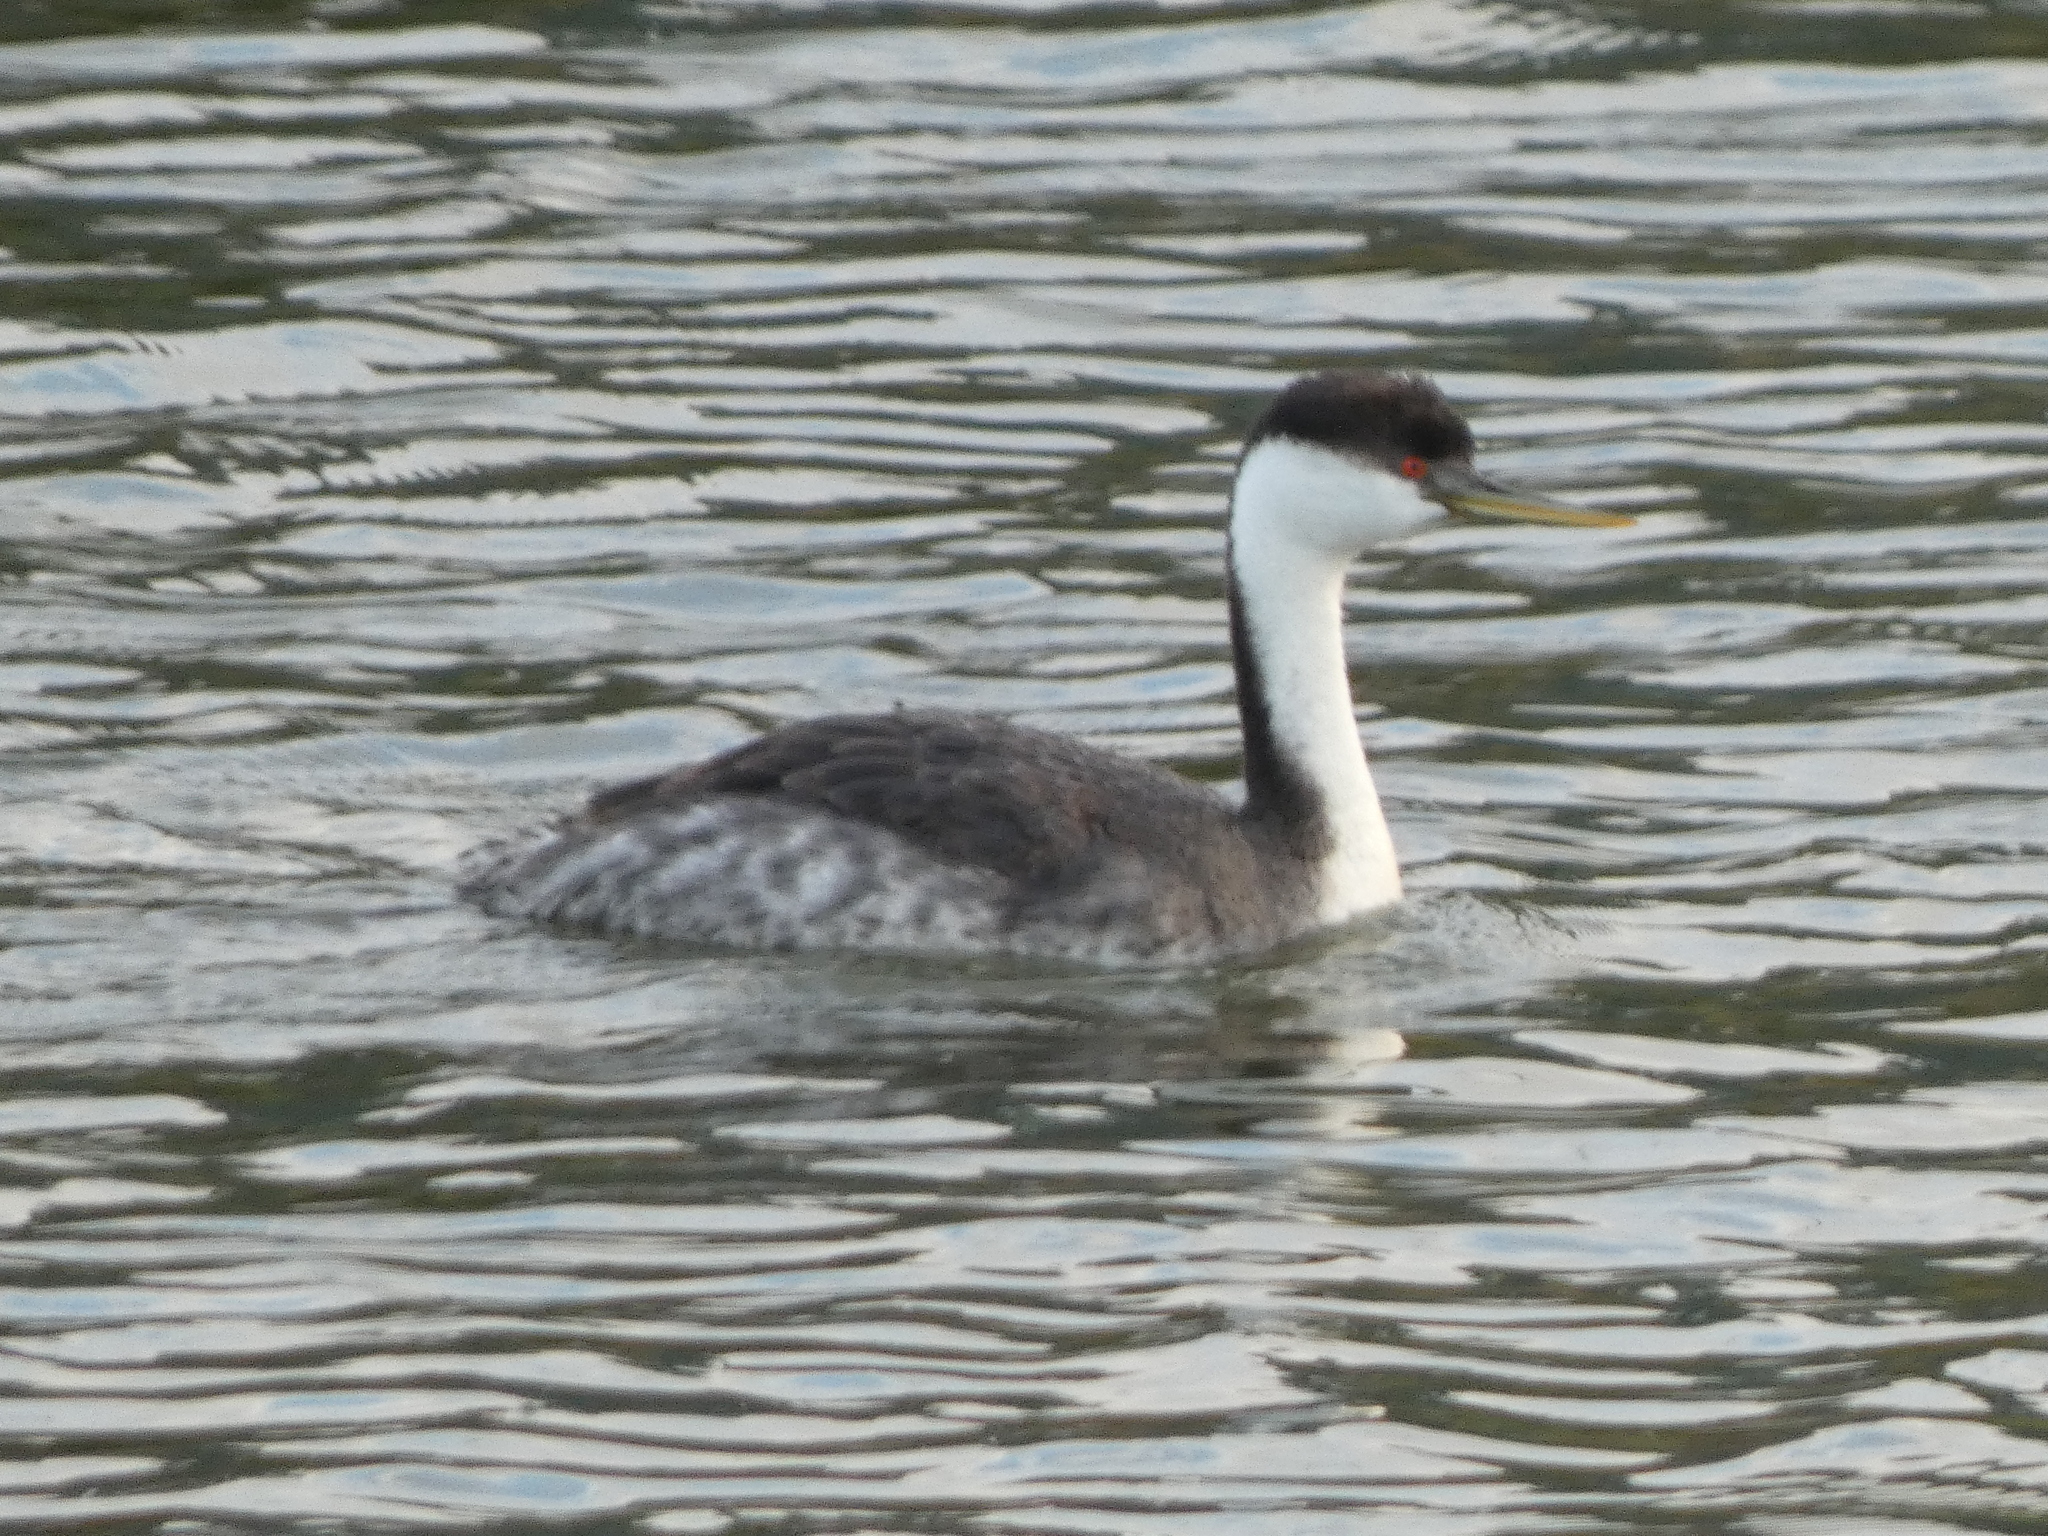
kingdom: Animalia
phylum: Chordata
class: Aves
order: Podicipediformes
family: Podicipedidae
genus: Aechmophorus
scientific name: Aechmophorus occidentalis
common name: Western grebe
